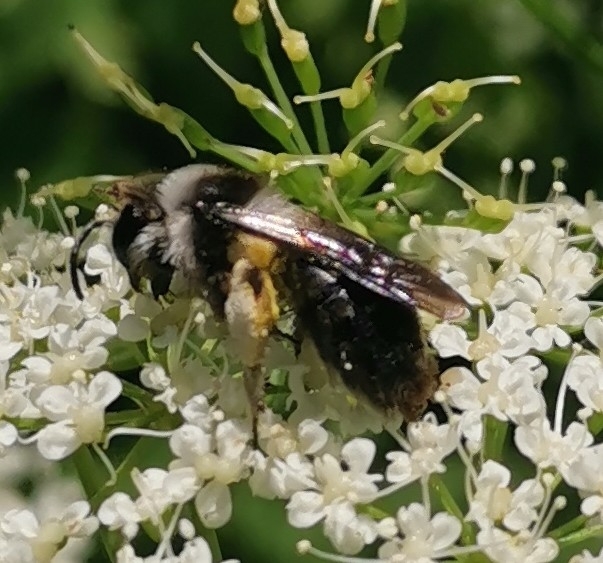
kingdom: Animalia
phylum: Arthropoda
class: Insecta
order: Hymenoptera
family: Andrenidae
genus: Andrena
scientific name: Andrena cineraria
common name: Ashy mining bee
